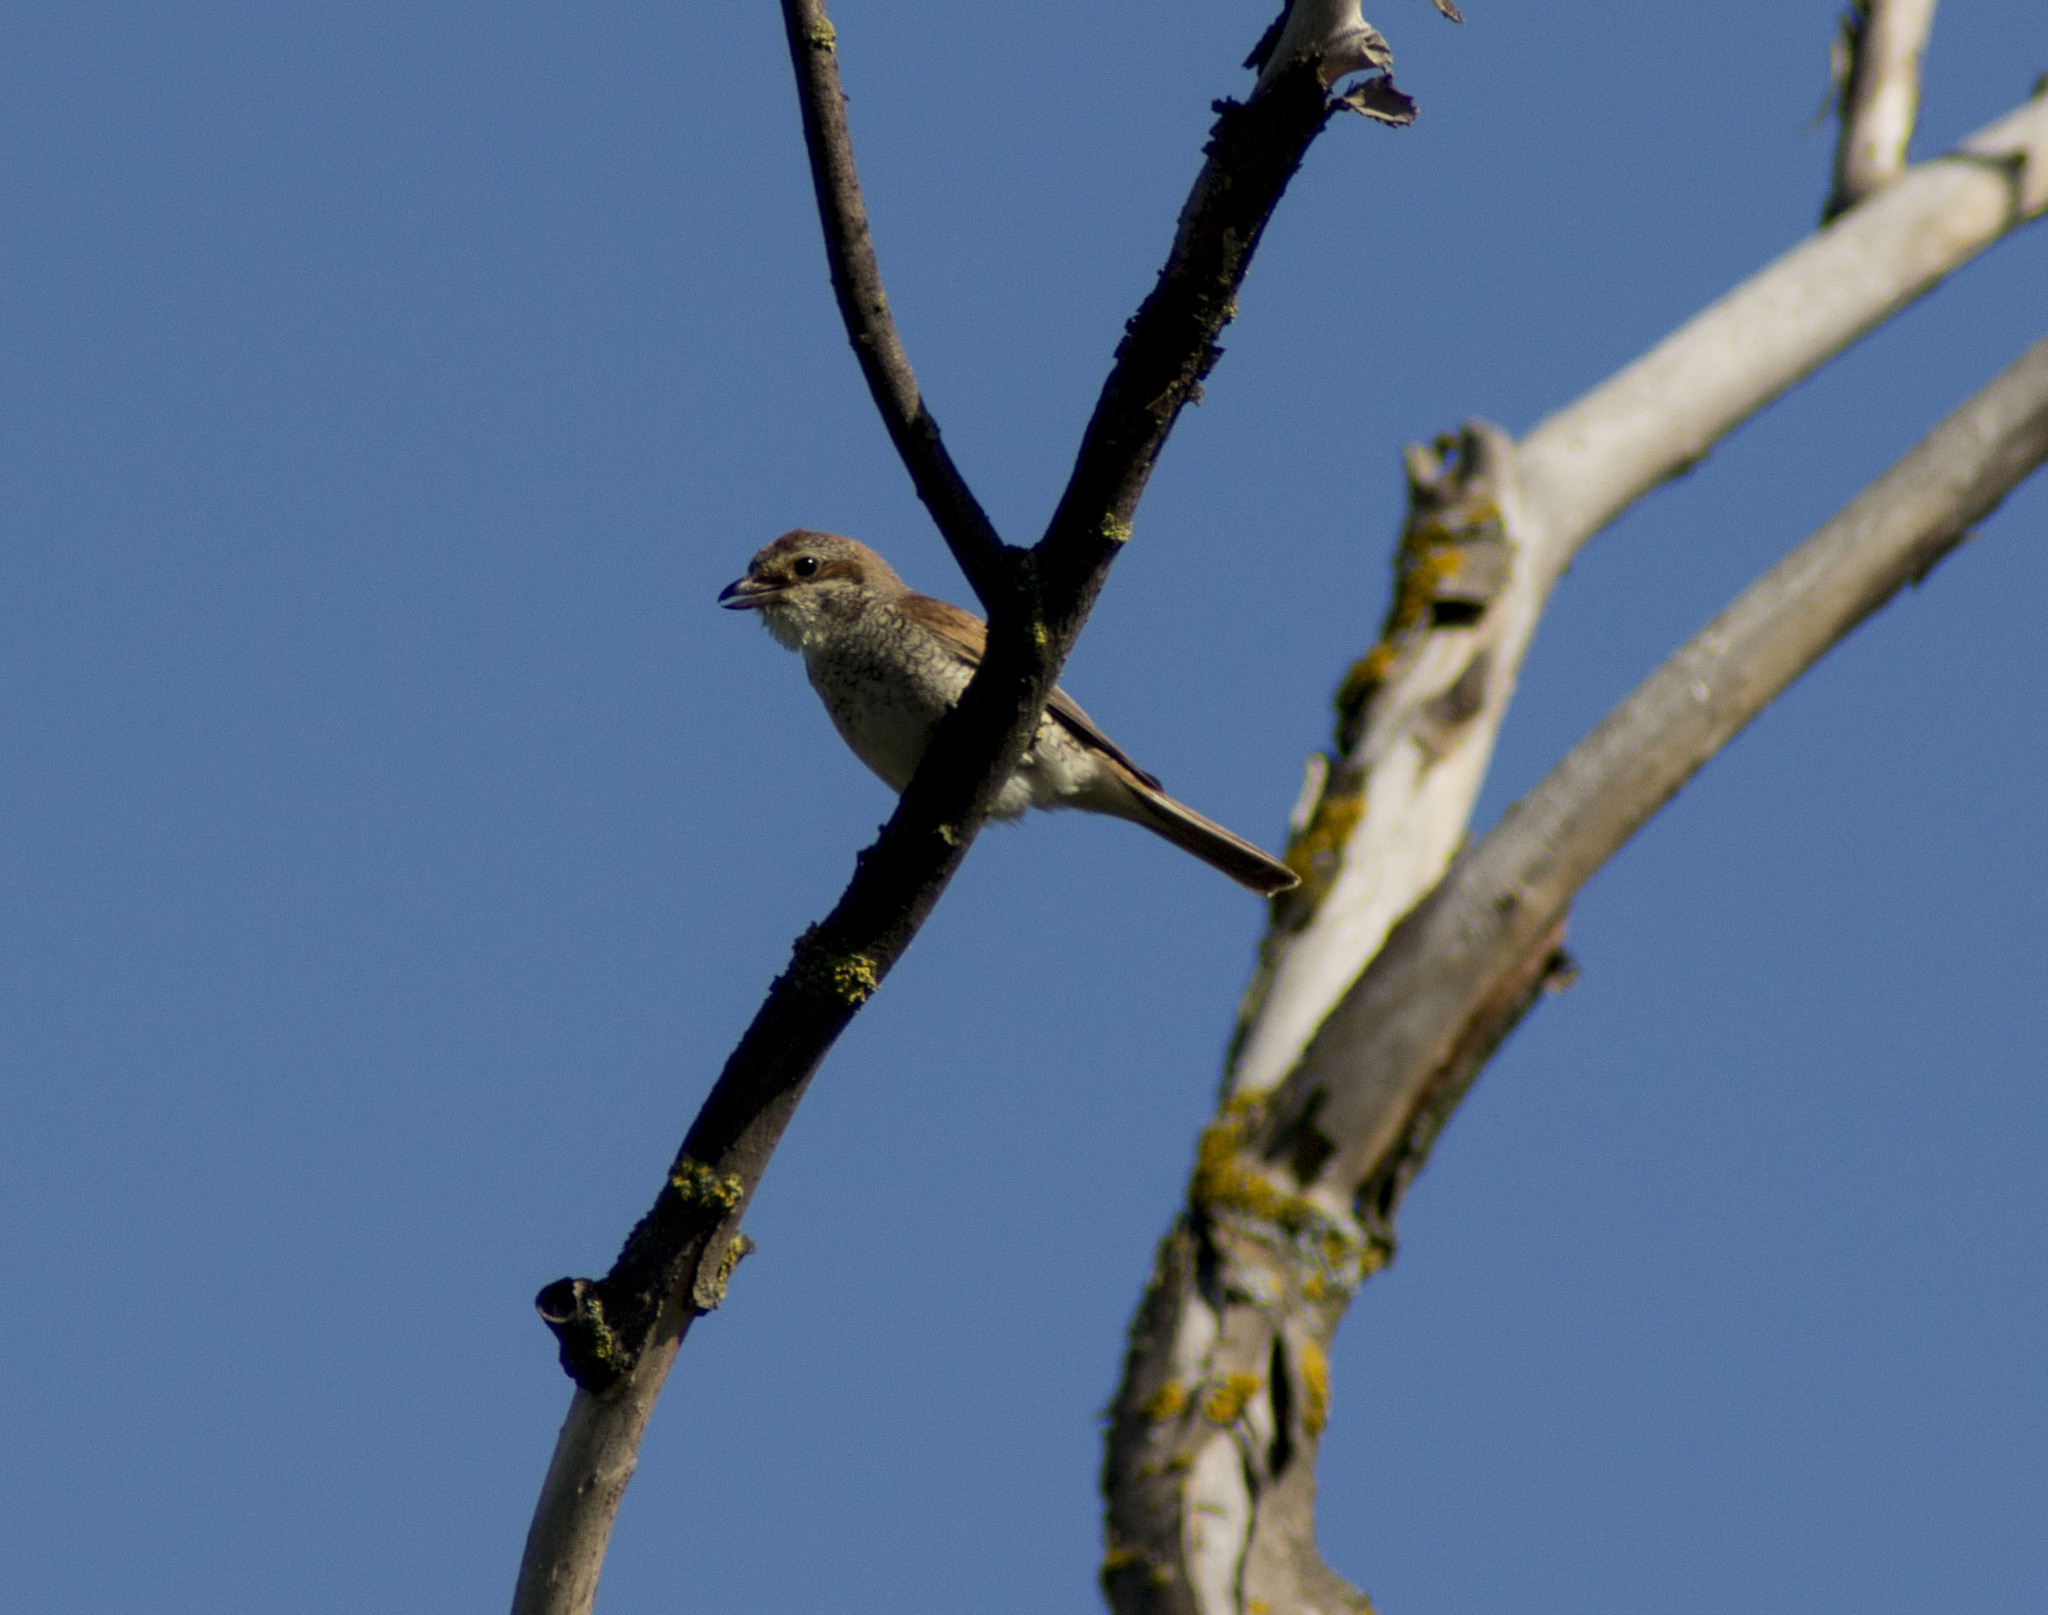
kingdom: Animalia
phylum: Chordata
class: Aves
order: Passeriformes
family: Laniidae
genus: Lanius
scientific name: Lanius collurio
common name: Red-backed shrike
